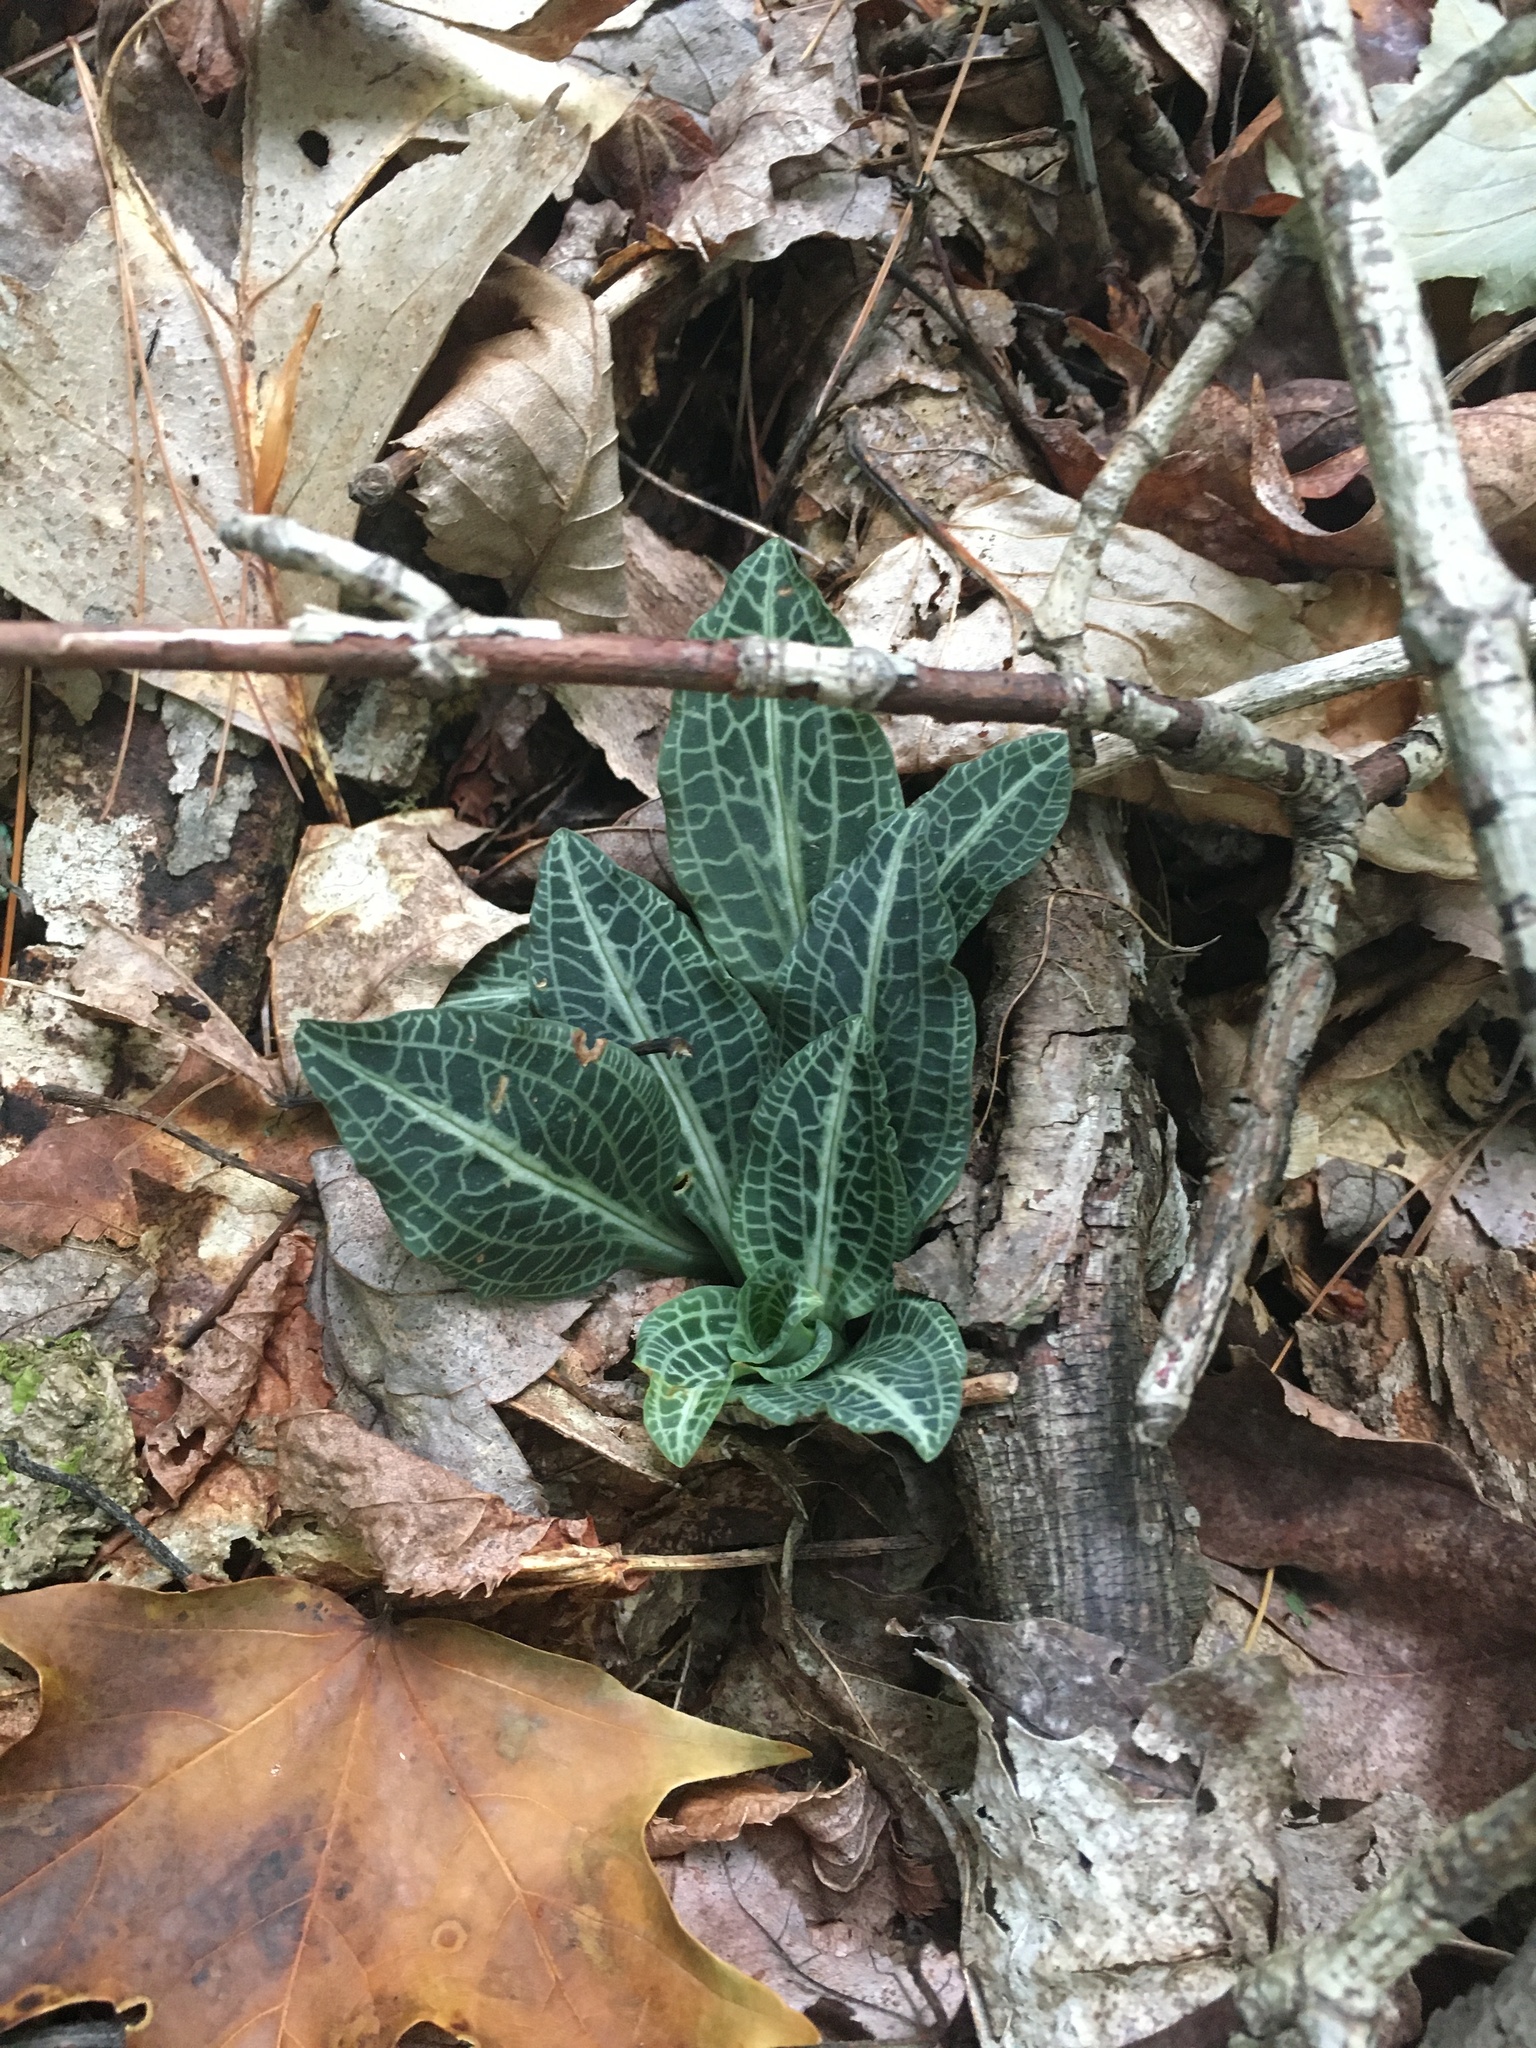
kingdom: Plantae
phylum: Tracheophyta
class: Liliopsida
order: Asparagales
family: Orchidaceae
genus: Goodyera
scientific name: Goodyera pubescens
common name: Downy rattlesnake-plantain
